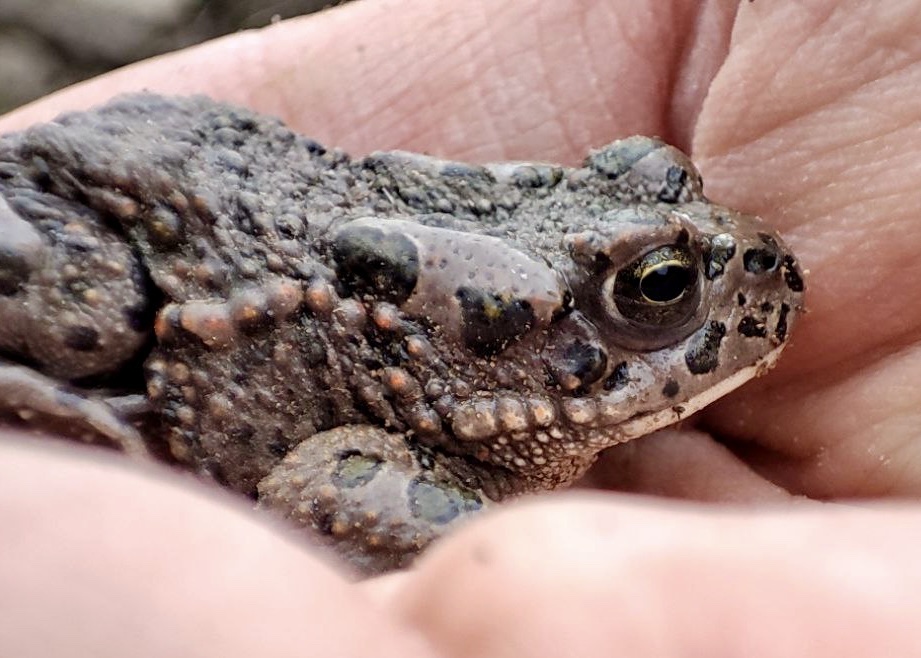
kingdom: Animalia
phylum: Chordata
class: Amphibia
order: Anura
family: Bufonidae
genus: Bufotes
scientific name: Bufotes viridis
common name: European green toad
